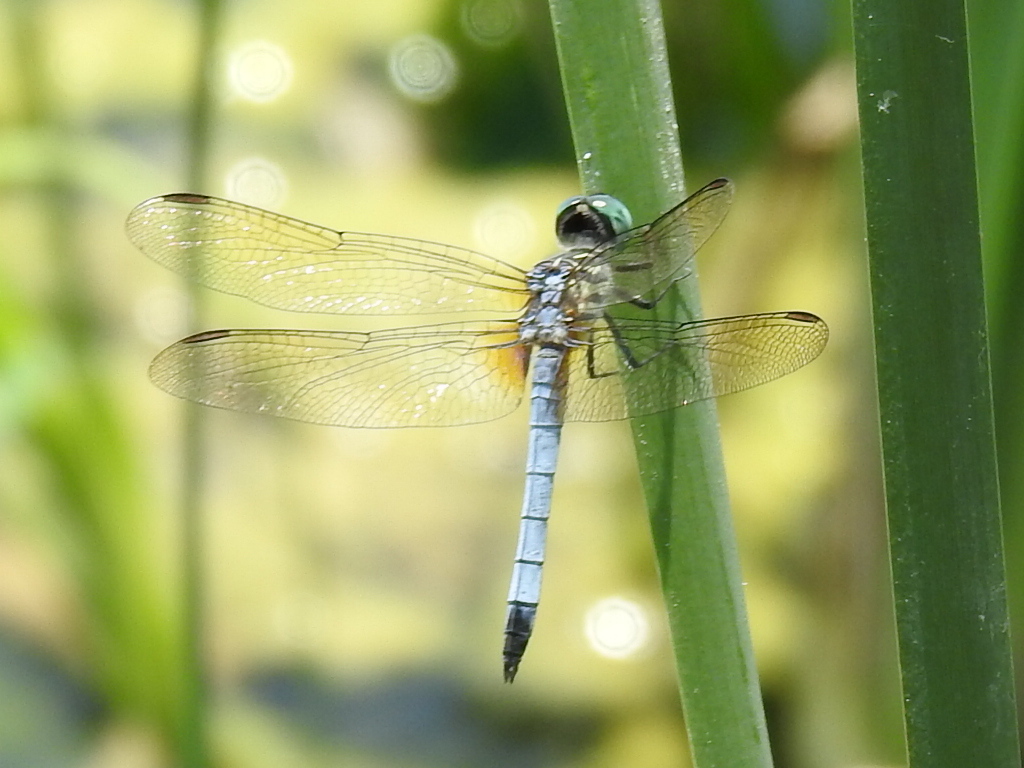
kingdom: Animalia
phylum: Arthropoda
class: Insecta
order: Odonata
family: Libellulidae
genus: Pachydiplax
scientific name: Pachydiplax longipennis
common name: Blue dasher
